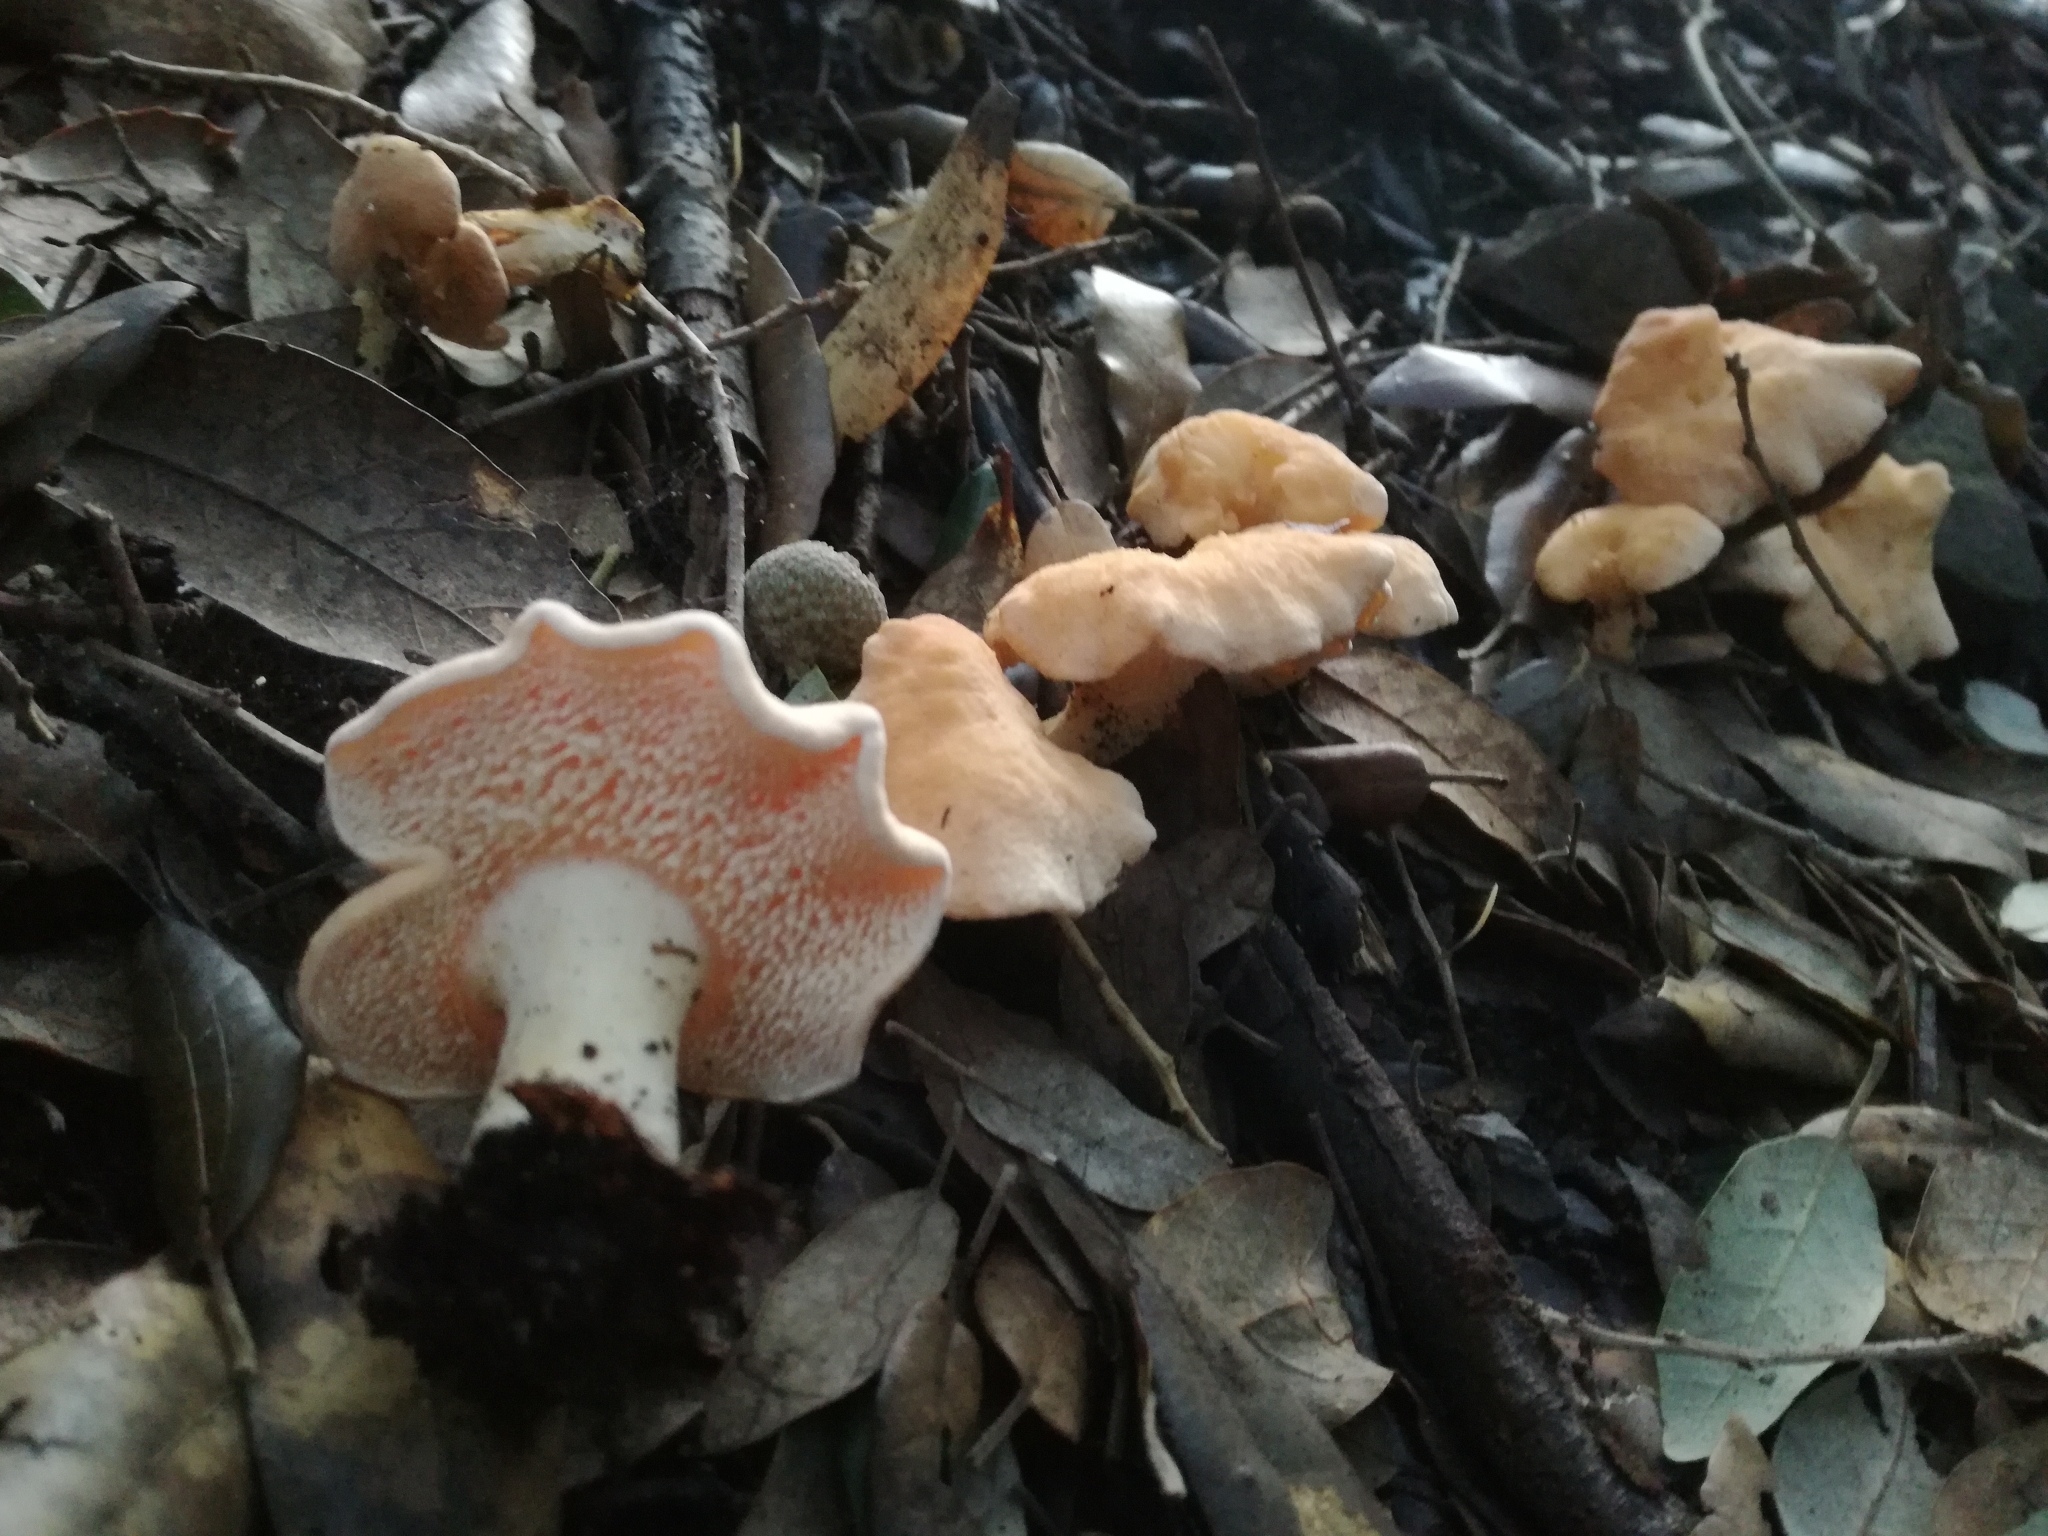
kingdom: Fungi
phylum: Basidiomycota
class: Agaricomycetes
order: Cantharellales
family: Hydnaceae
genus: Hydnum
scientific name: Hydnum
